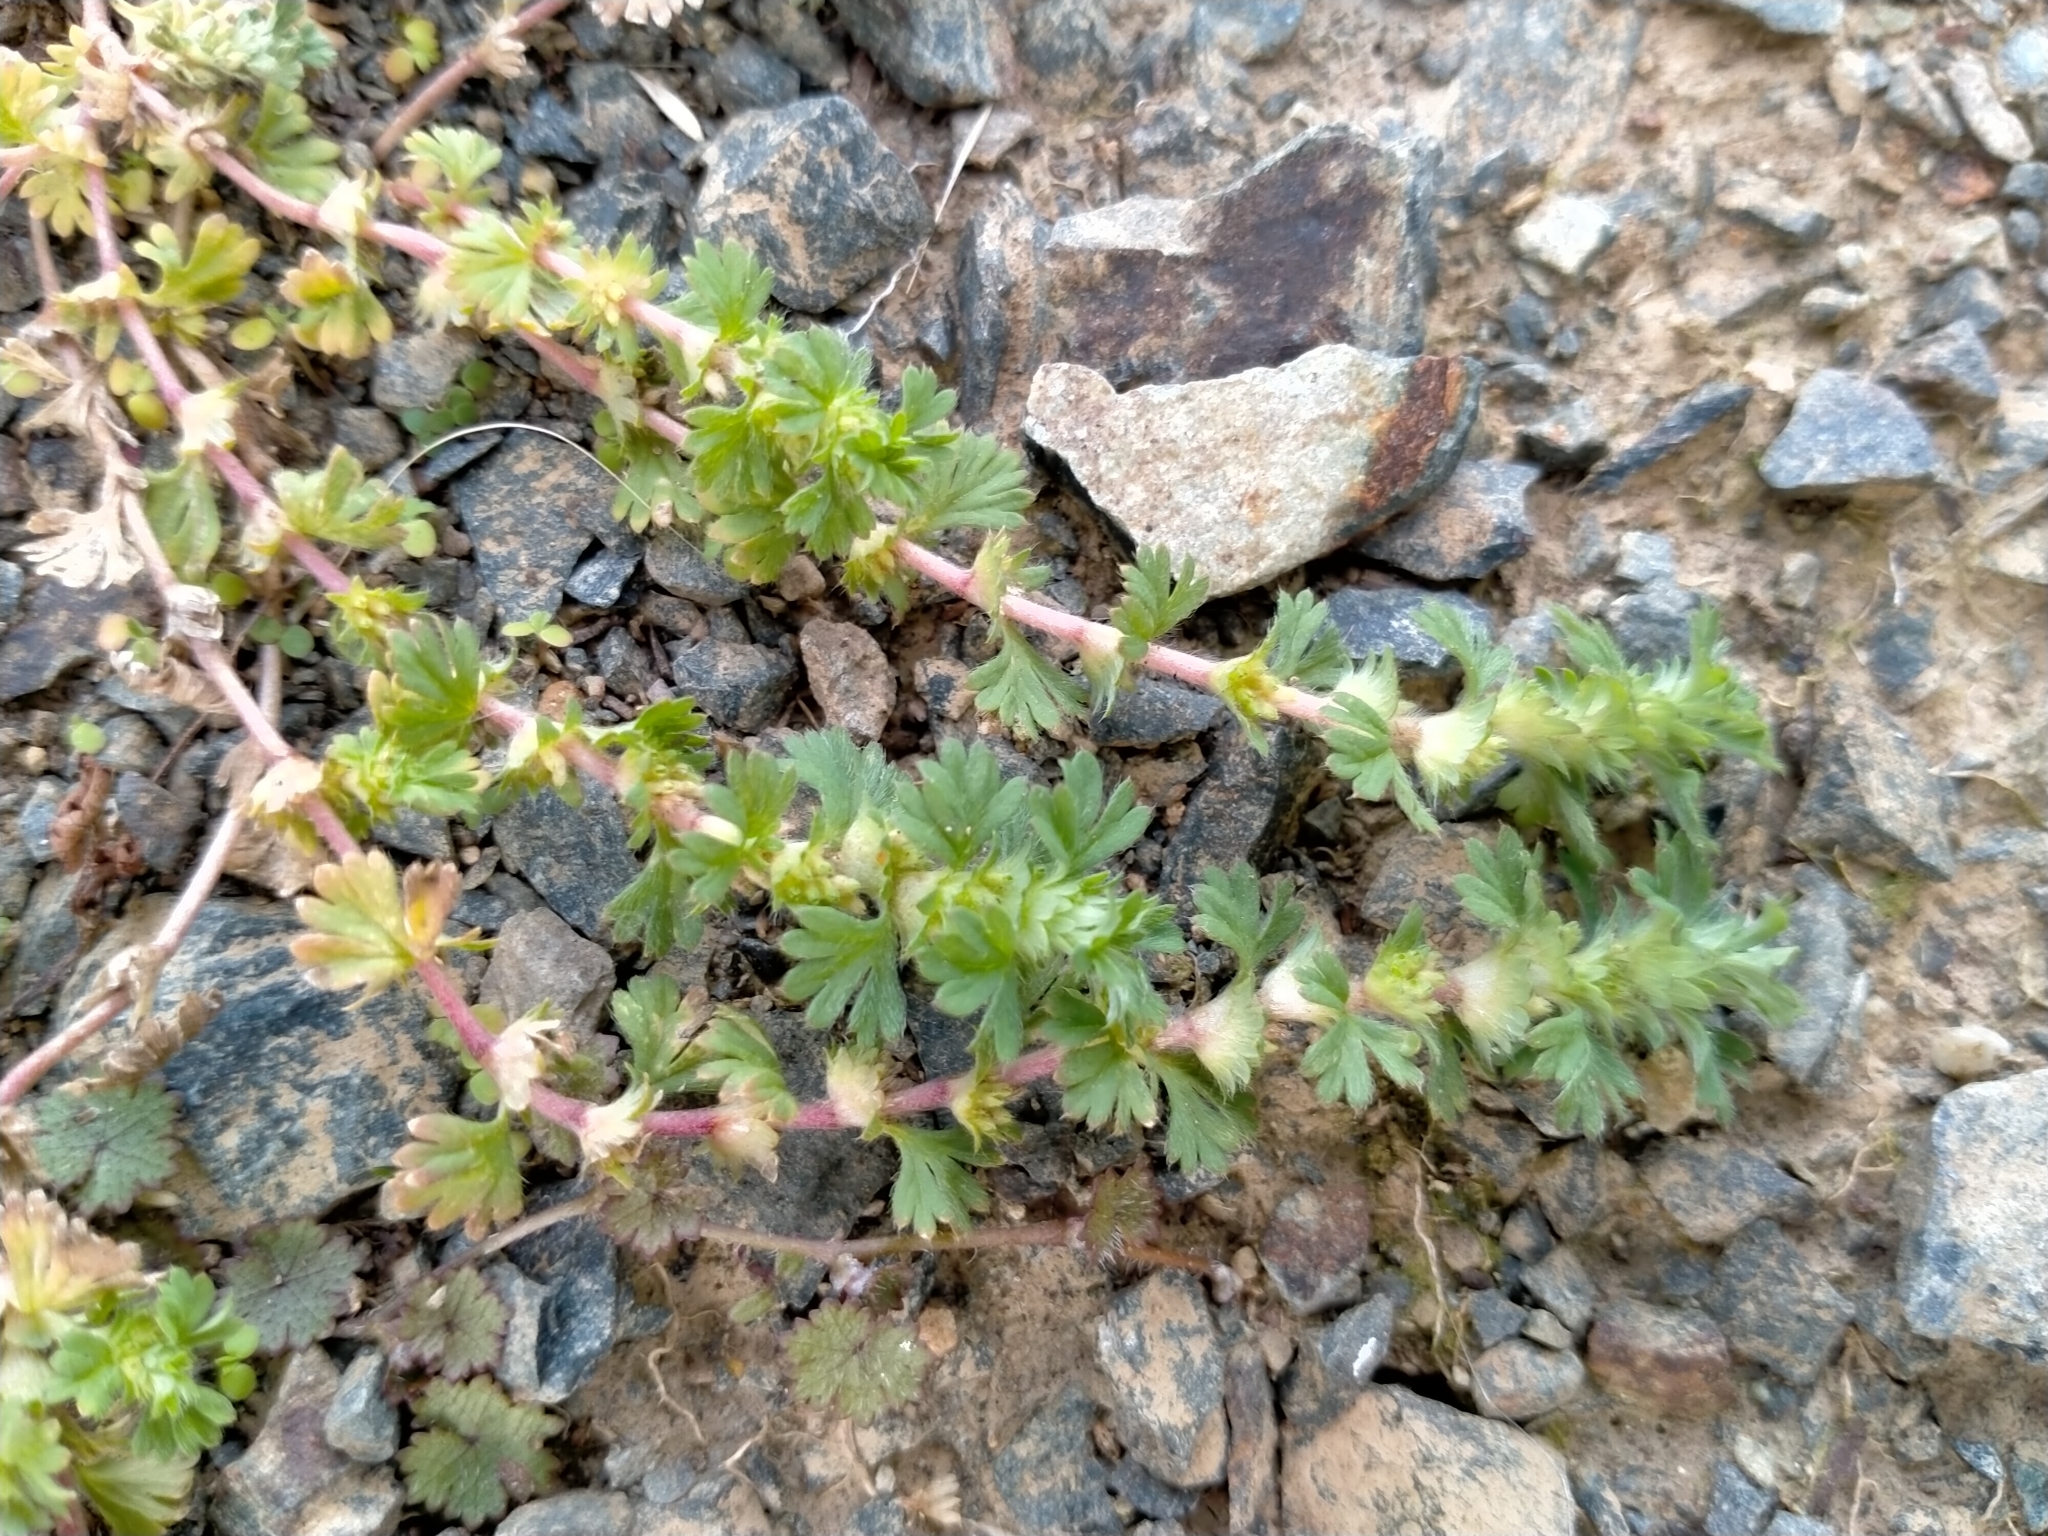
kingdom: Plantae
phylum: Tracheophyta
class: Magnoliopsida
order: Rosales
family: Rosaceae
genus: Aphanes
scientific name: Aphanes australis
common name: Slender parsley-piert
